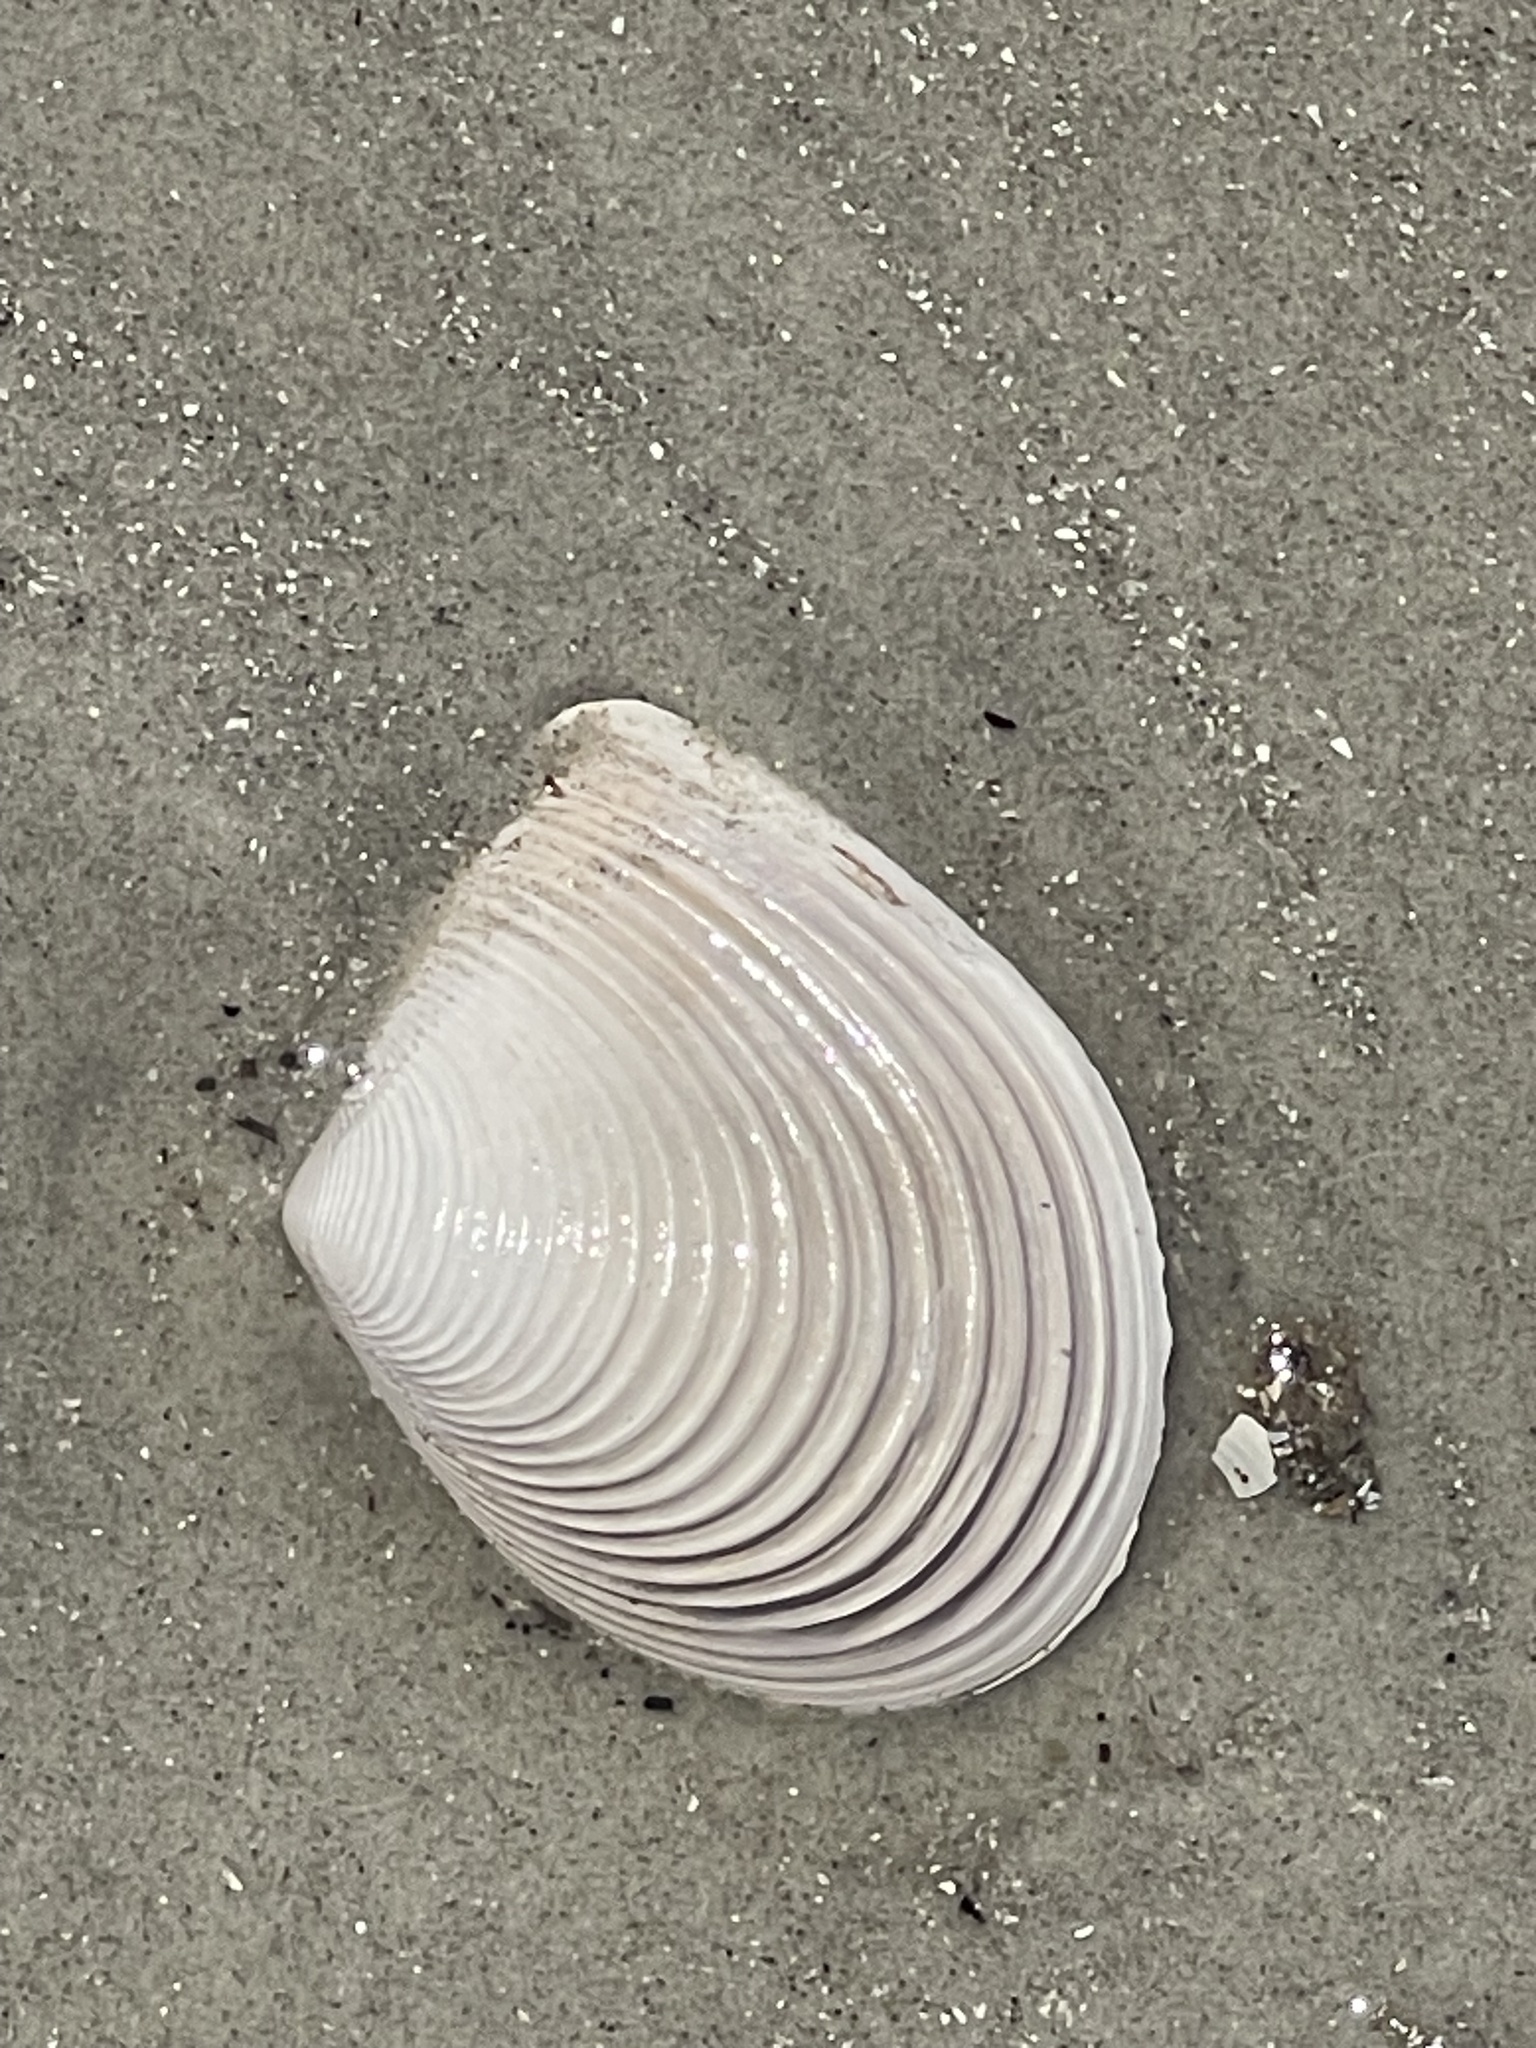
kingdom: Animalia
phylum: Mollusca
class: Bivalvia
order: Venerida
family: Anatinellidae
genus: Raeta
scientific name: Raeta plicatella
